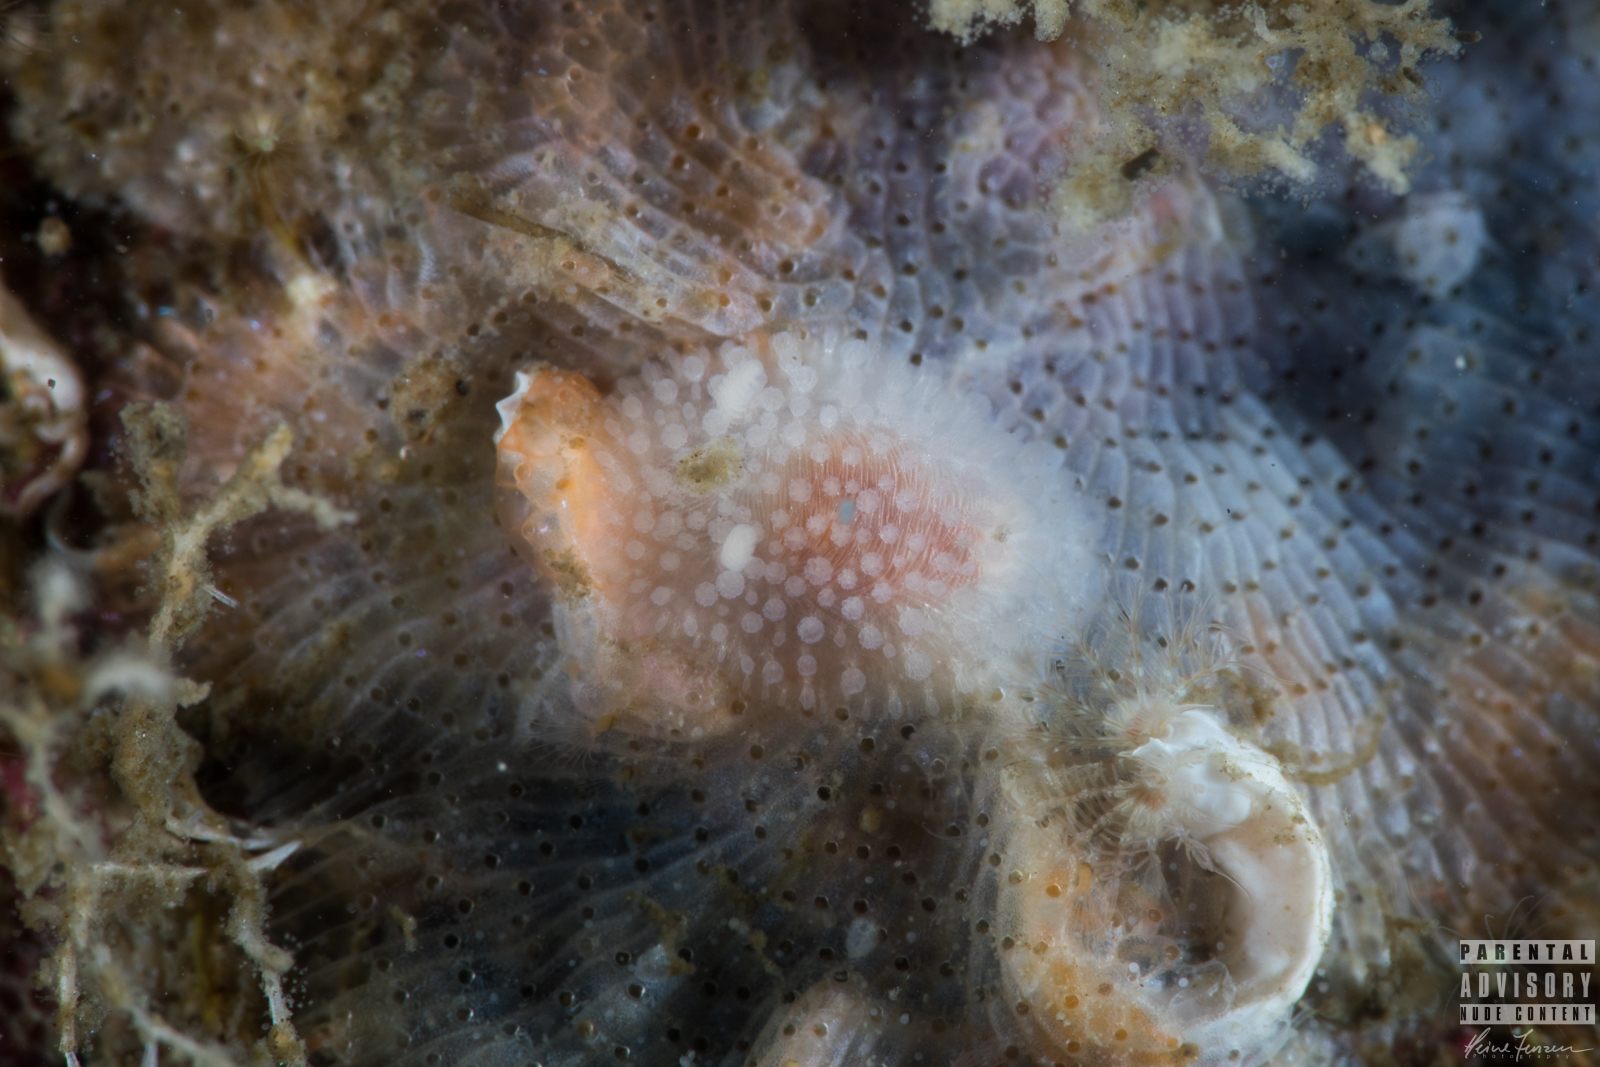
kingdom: Animalia
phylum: Mollusca
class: Gastropoda
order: Nudibranchia
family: Onchidorididae
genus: Onchidoris
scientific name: Onchidoris muricata
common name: Rough doris
